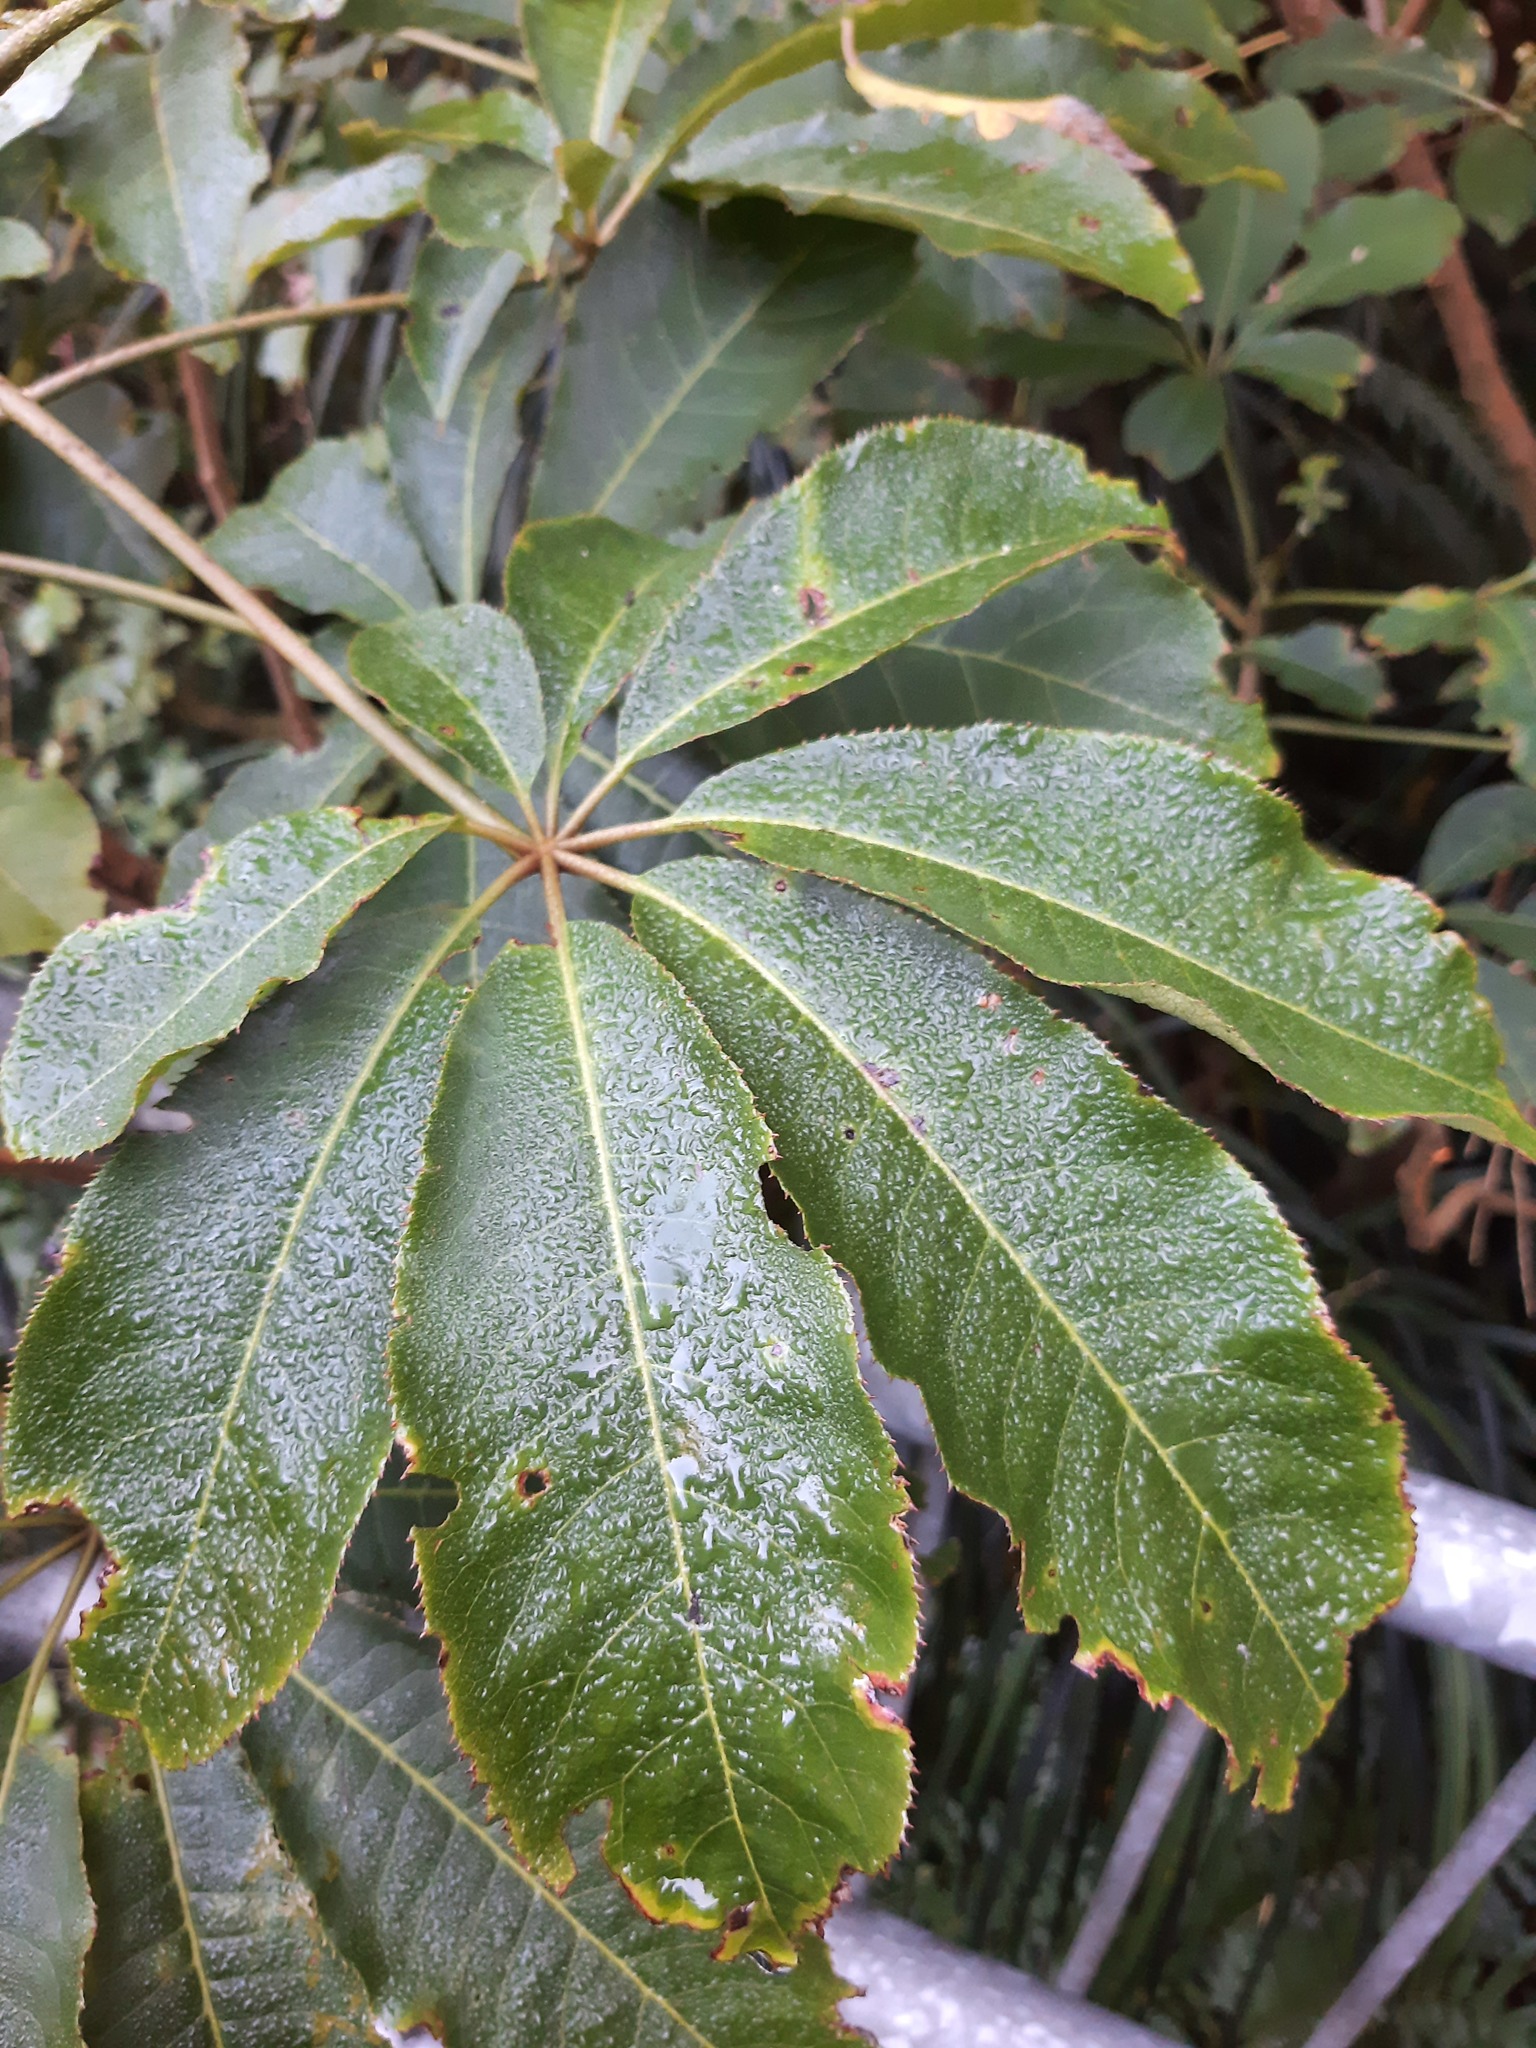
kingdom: Plantae
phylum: Tracheophyta
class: Magnoliopsida
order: Apiales
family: Araliaceae
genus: Schefflera
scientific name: Schefflera digitata
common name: Pate
